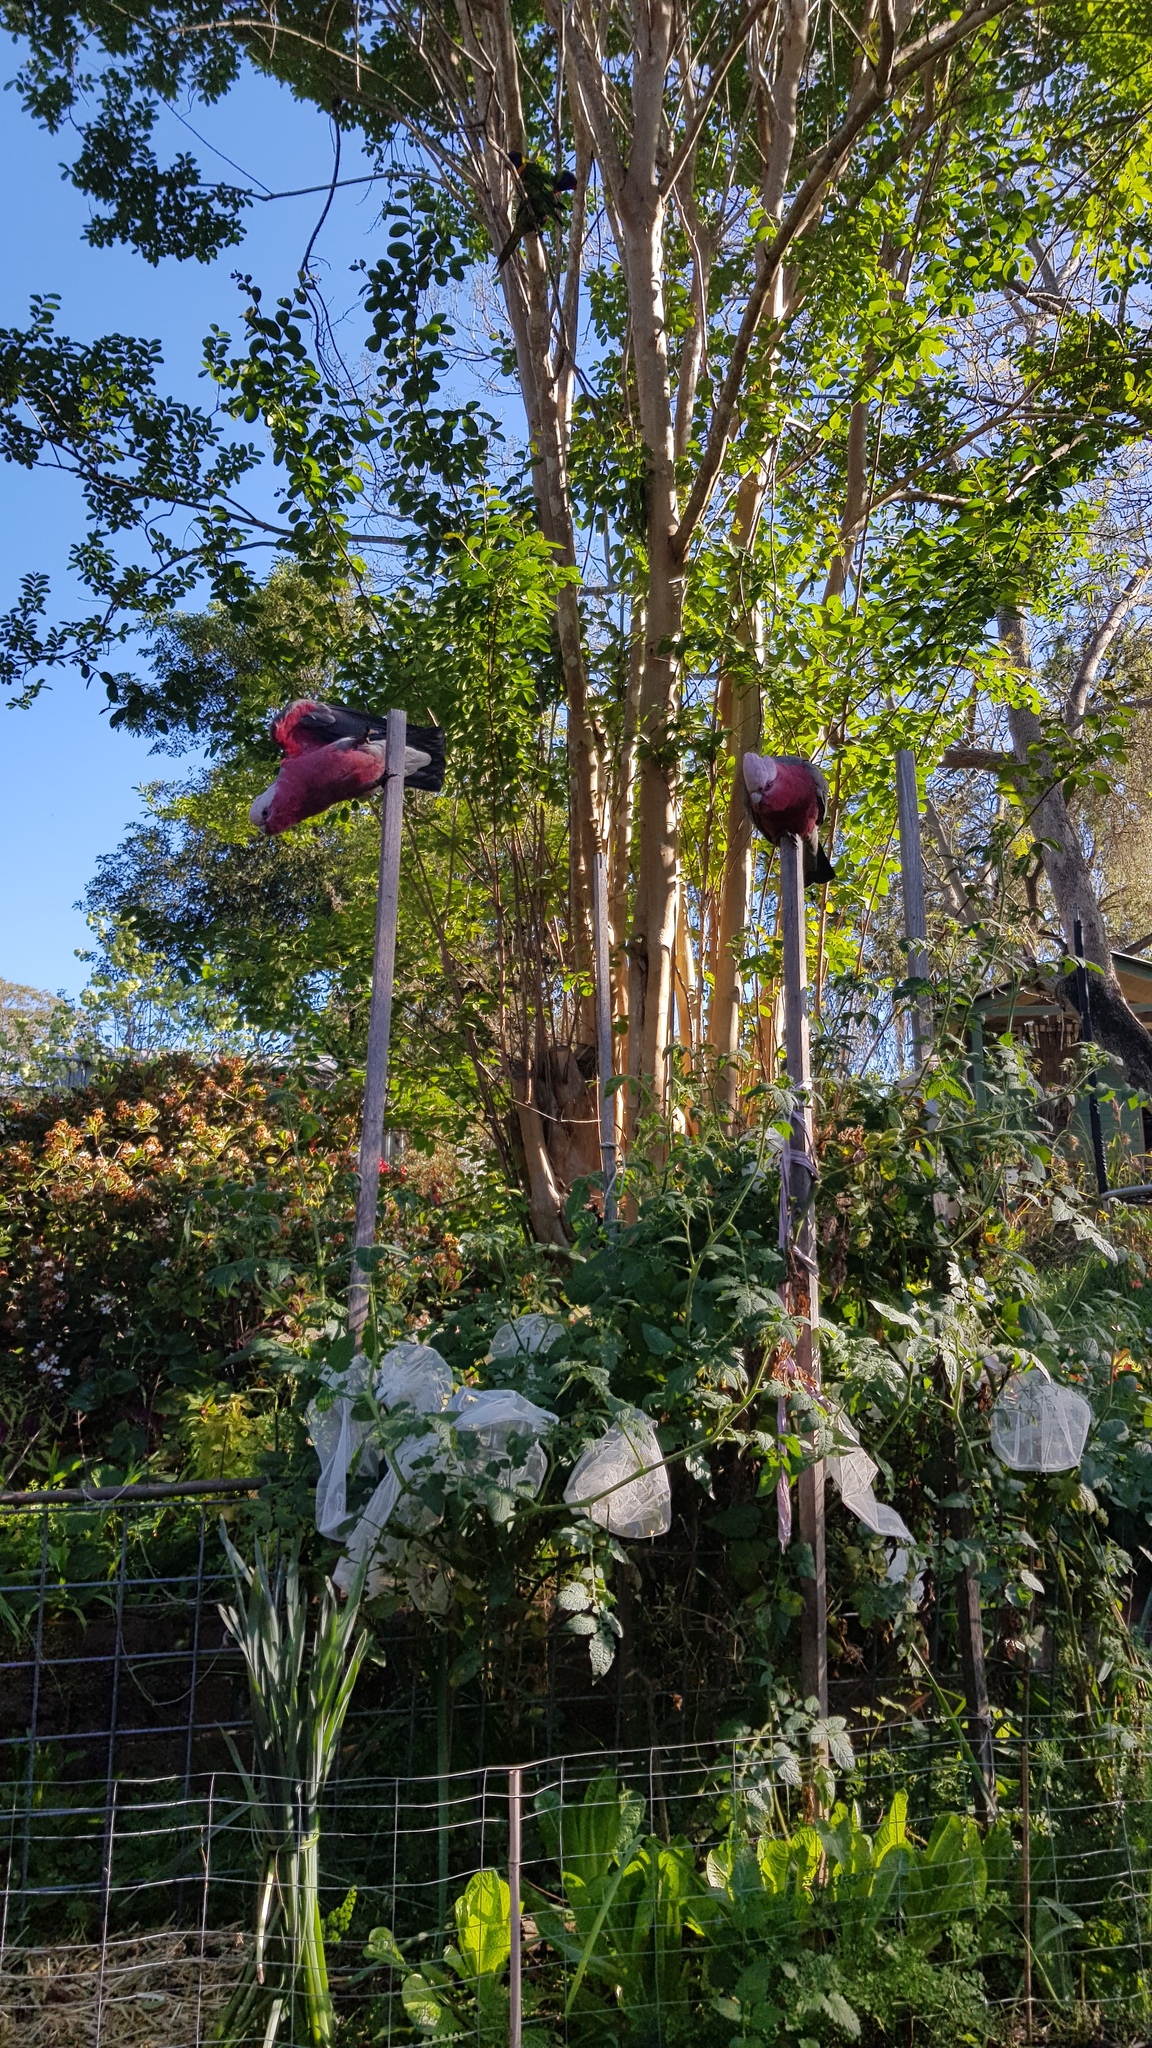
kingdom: Animalia
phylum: Chordata
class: Aves
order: Psittaciformes
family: Psittacidae
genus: Eolophus
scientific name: Eolophus roseicapilla
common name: Galah
